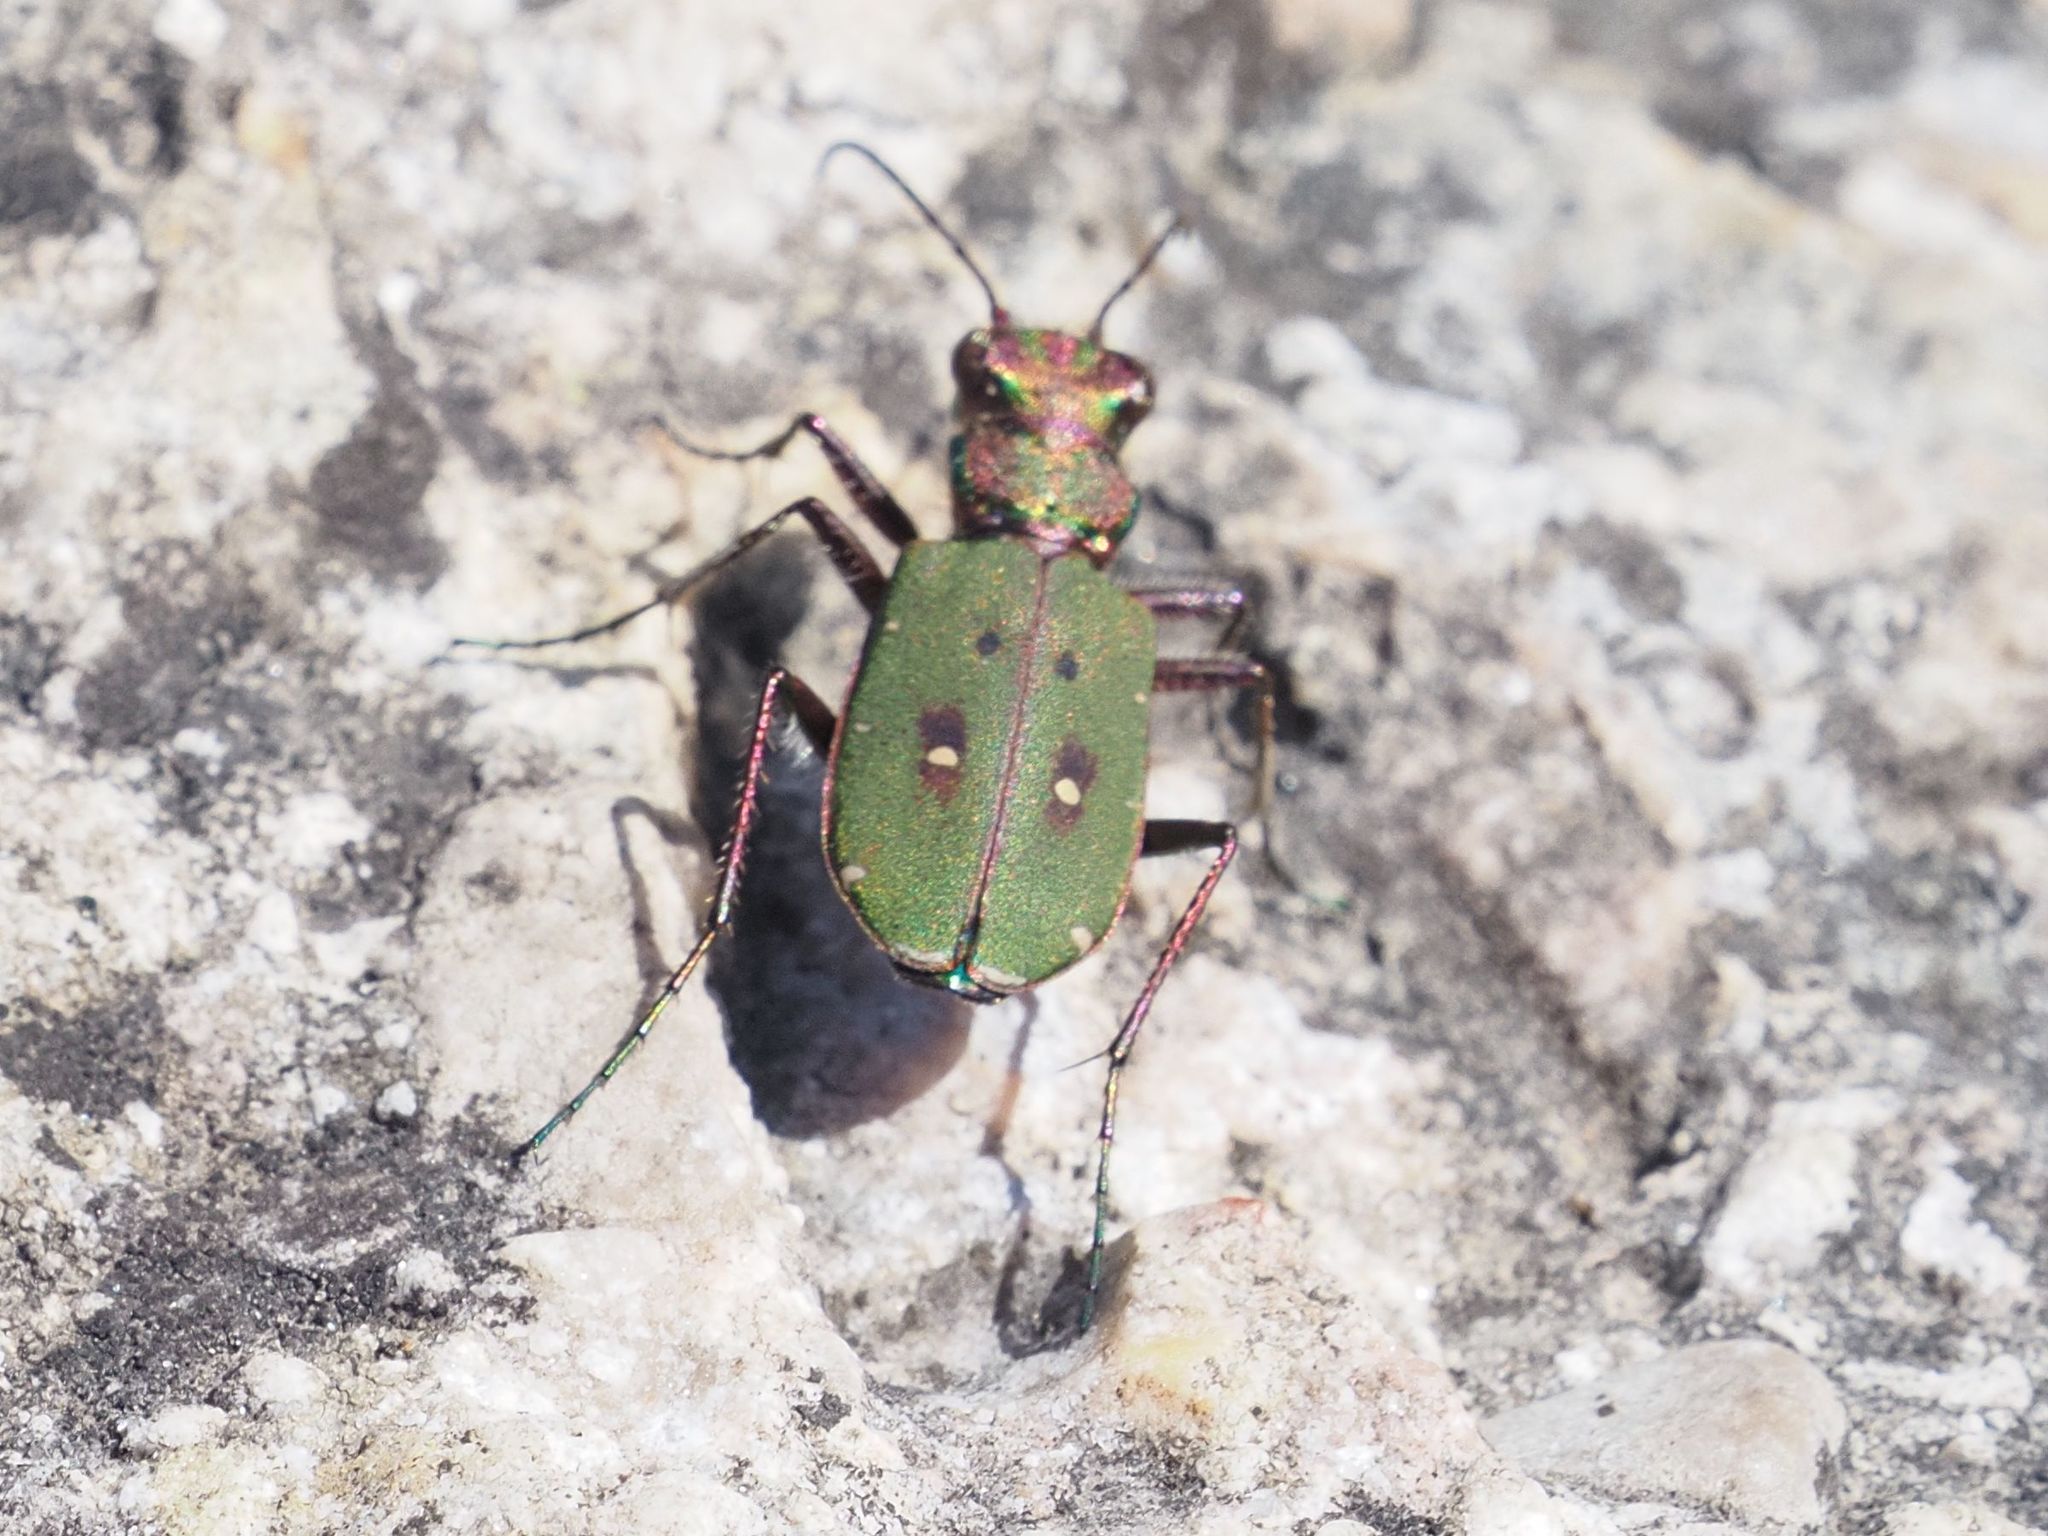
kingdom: Animalia
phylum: Arthropoda
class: Insecta
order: Coleoptera
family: Carabidae
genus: Cicindela
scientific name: Cicindela campestris
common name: Common tiger beetle
